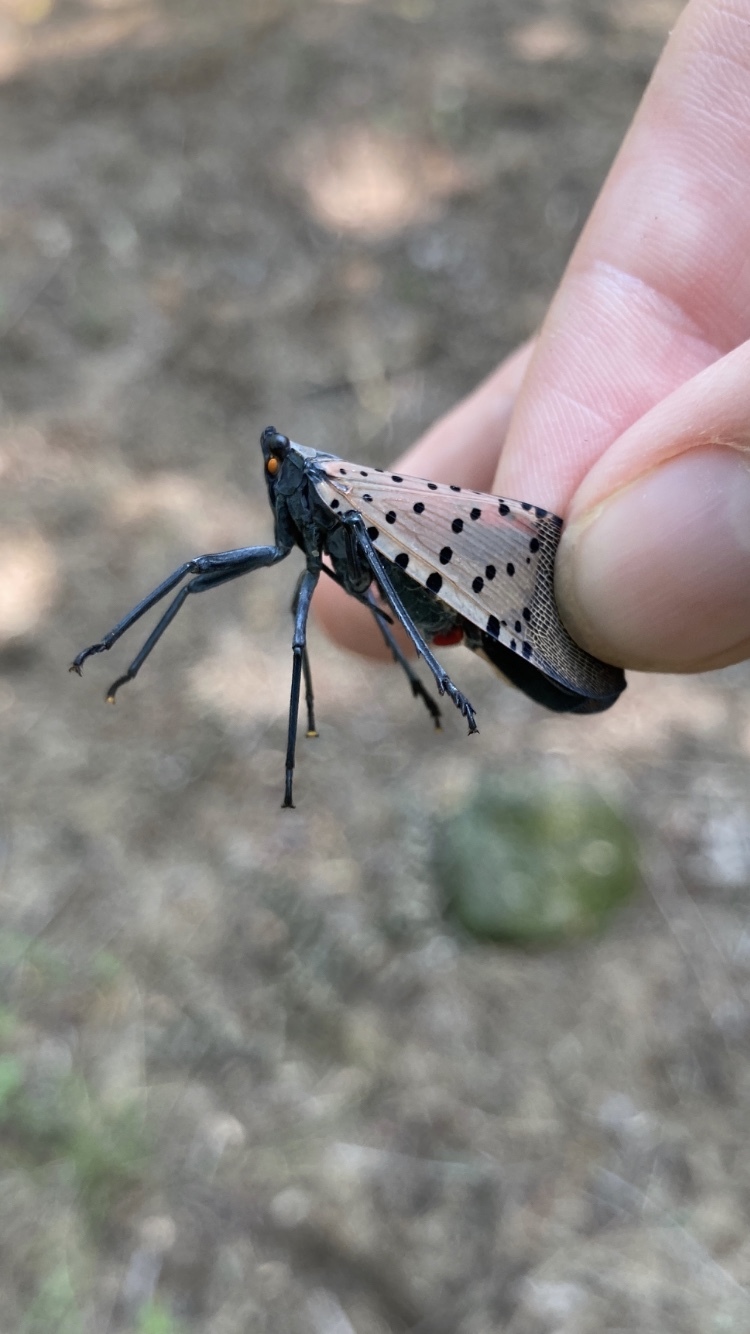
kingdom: Animalia
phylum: Arthropoda
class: Insecta
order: Hemiptera
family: Fulgoridae
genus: Lycorma
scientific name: Lycorma delicatula
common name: Spotted lanternfly
